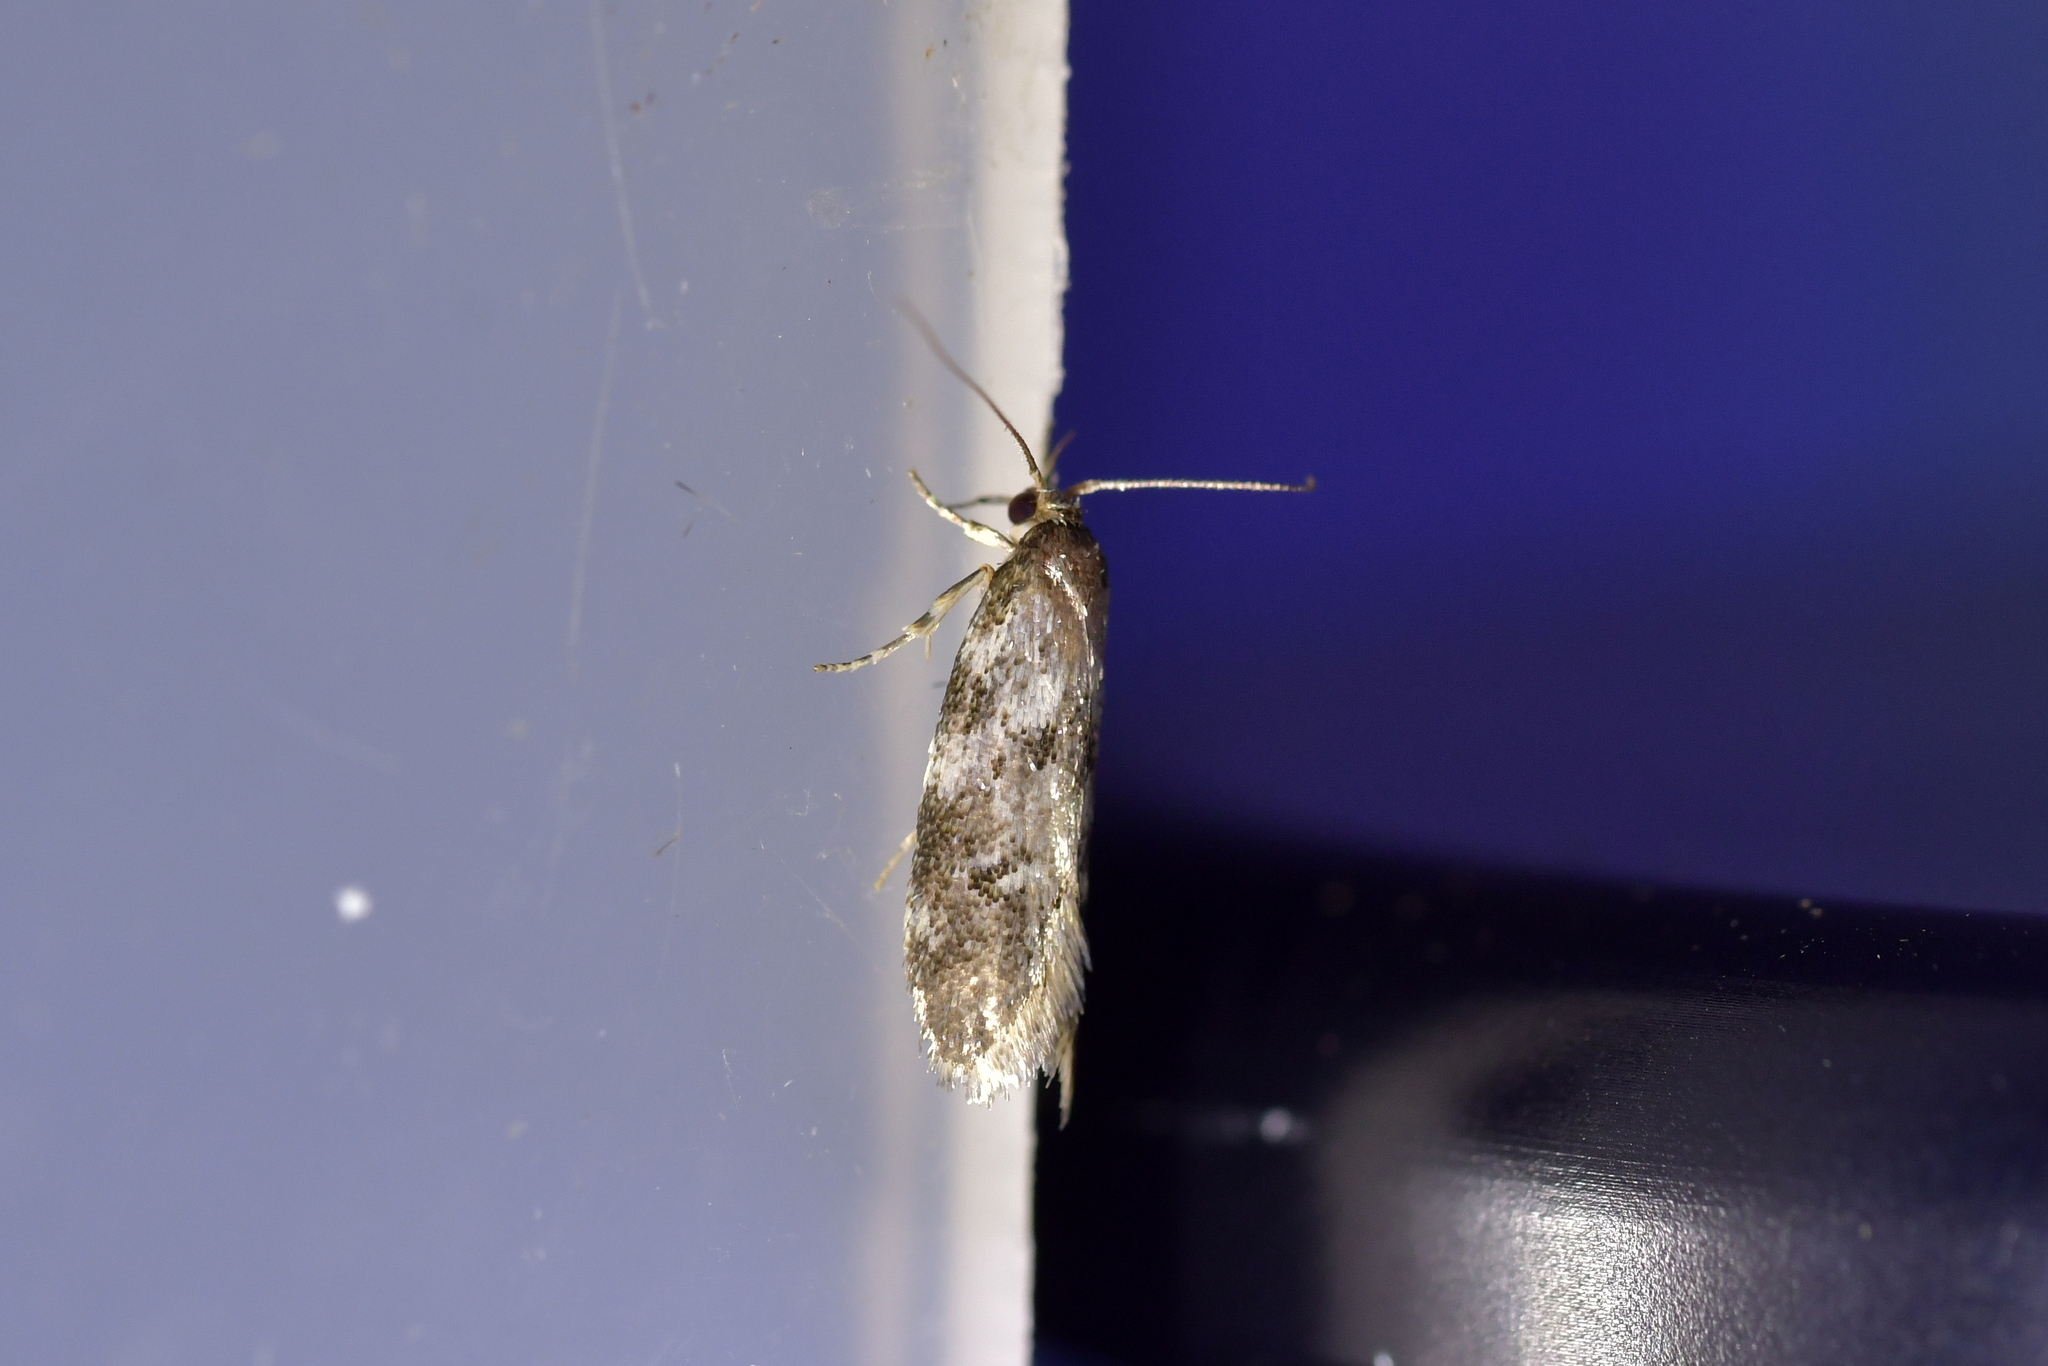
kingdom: Animalia
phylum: Arthropoda
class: Insecta
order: Lepidoptera
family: Oecophoridae
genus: Tingena
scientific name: Tingena clarkei
